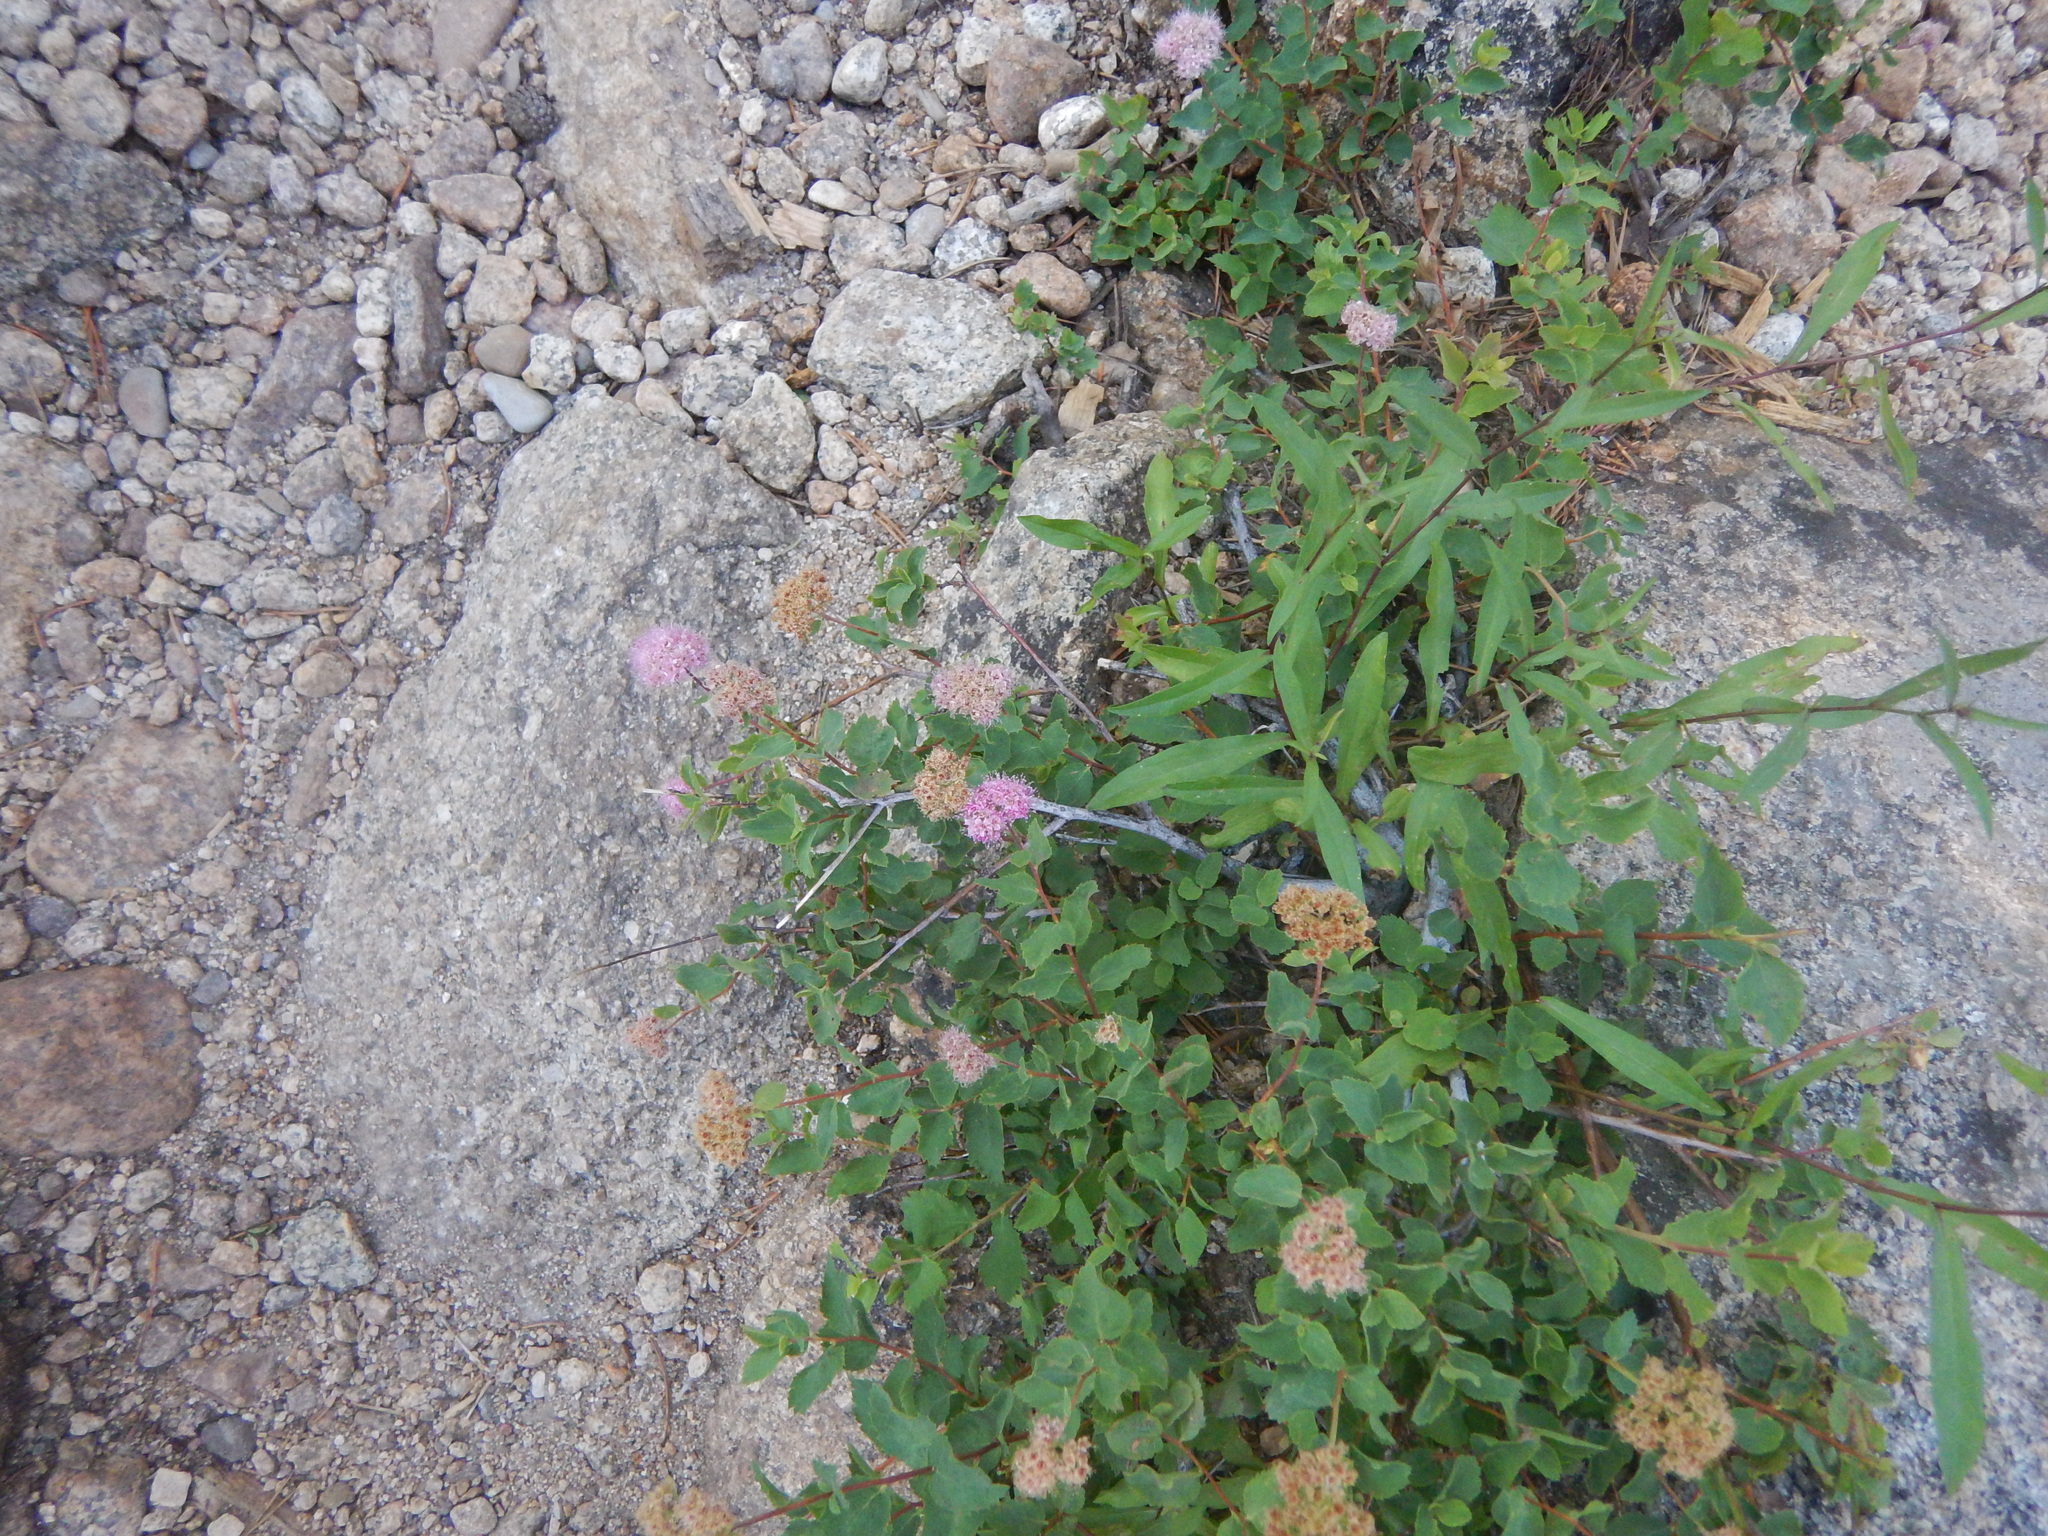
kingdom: Plantae
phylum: Tracheophyta
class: Magnoliopsida
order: Rosales
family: Rosaceae
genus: Spiraea
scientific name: Spiraea splendens
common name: Subalpine meadowsweet
